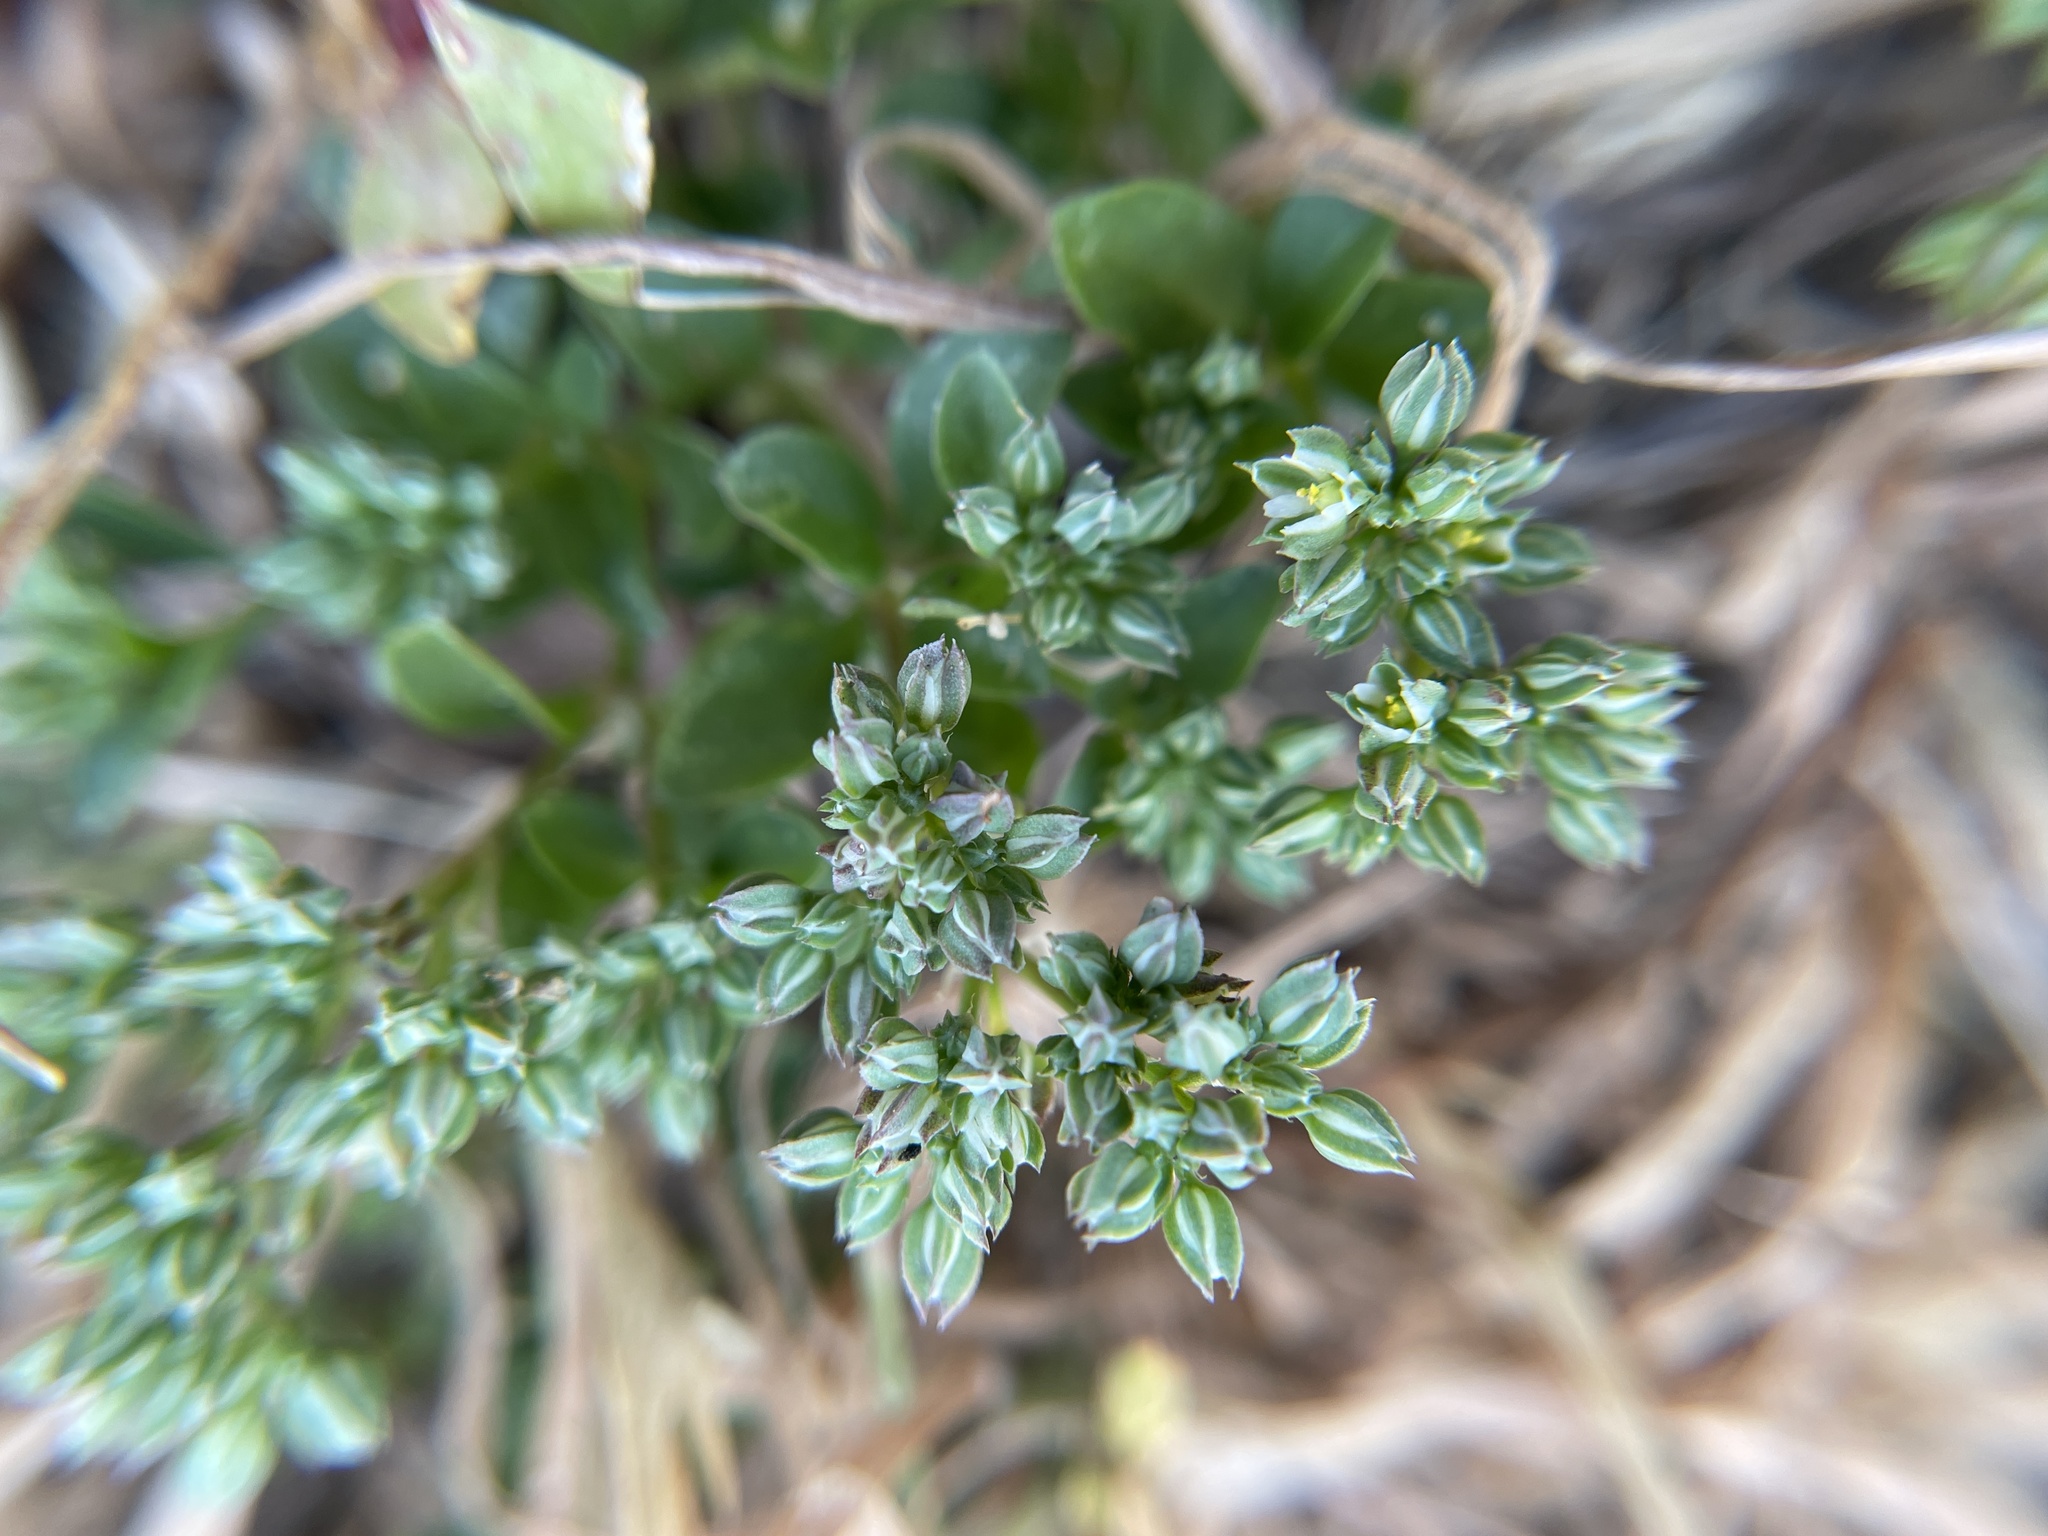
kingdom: Plantae
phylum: Tracheophyta
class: Magnoliopsida
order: Caryophyllales
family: Caryophyllaceae
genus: Polycarpon
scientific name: Polycarpon tetraphyllum
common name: Four-leaved all-seed
